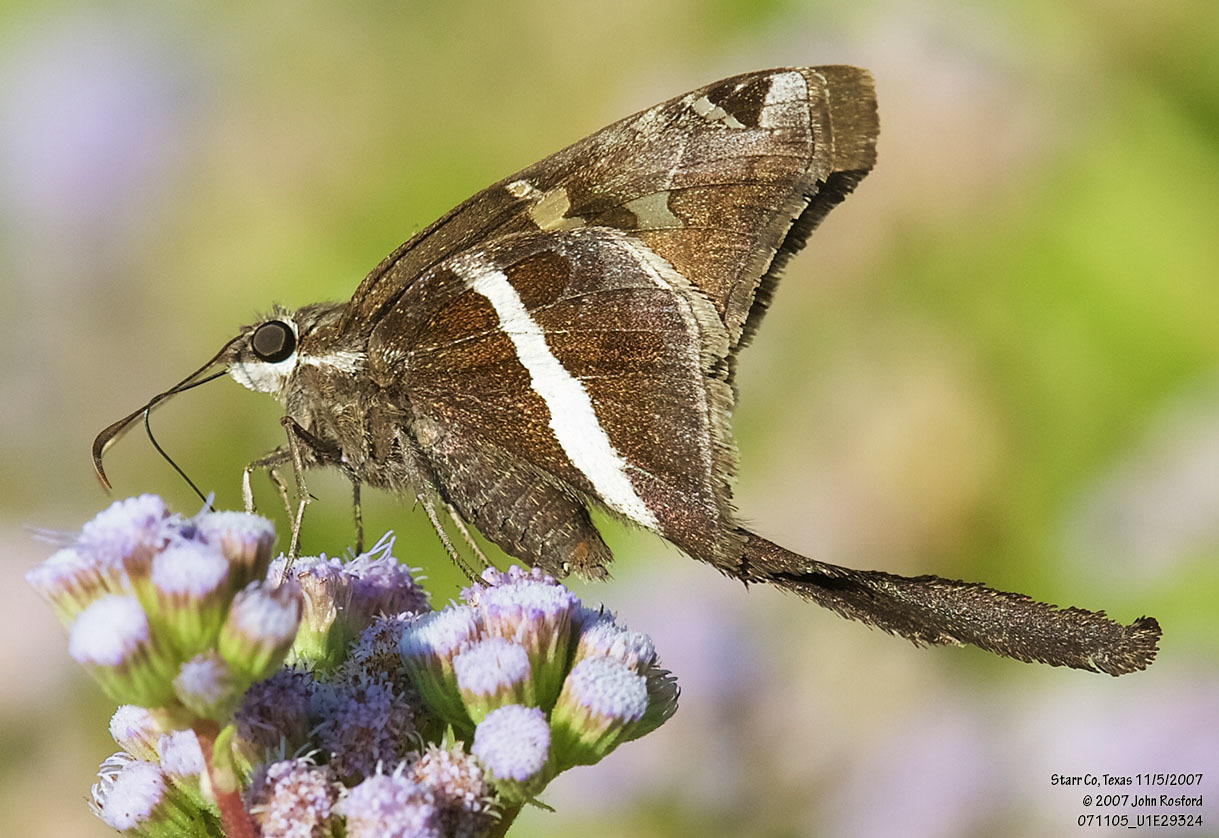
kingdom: Animalia
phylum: Arthropoda
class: Insecta
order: Lepidoptera
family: Hesperiidae
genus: Chioides
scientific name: Chioides catillus
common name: Silverbanded skipper
